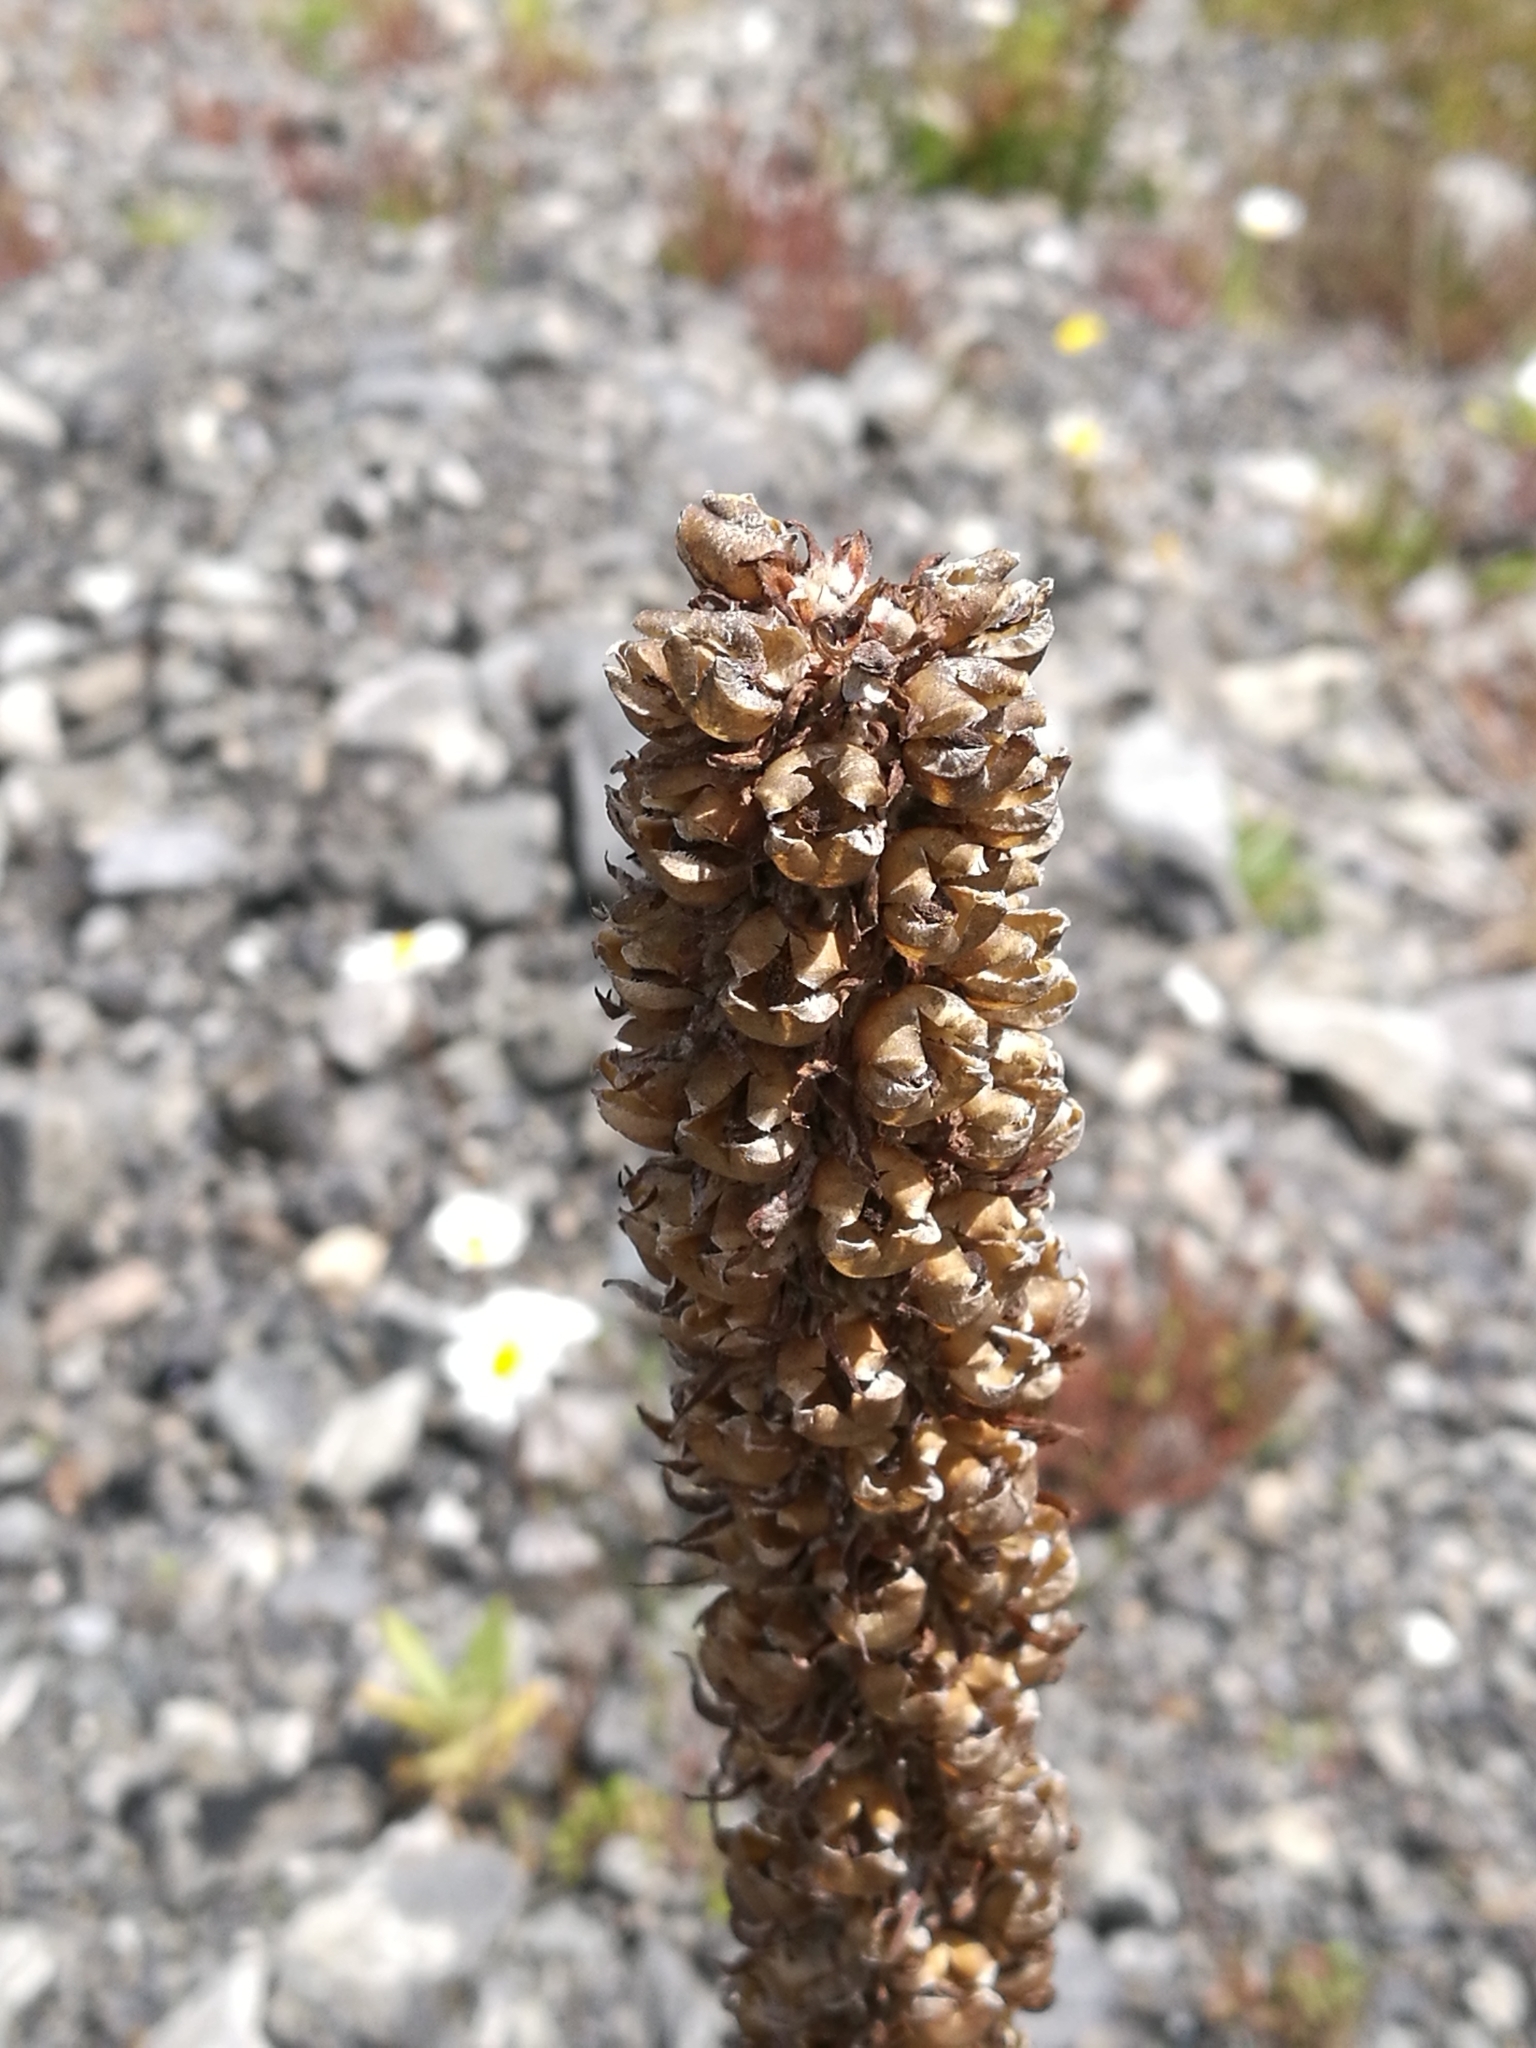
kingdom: Plantae
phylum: Tracheophyta
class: Magnoliopsida
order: Lamiales
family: Scrophulariaceae
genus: Verbascum
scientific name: Verbascum thapsus
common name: Common mullein
